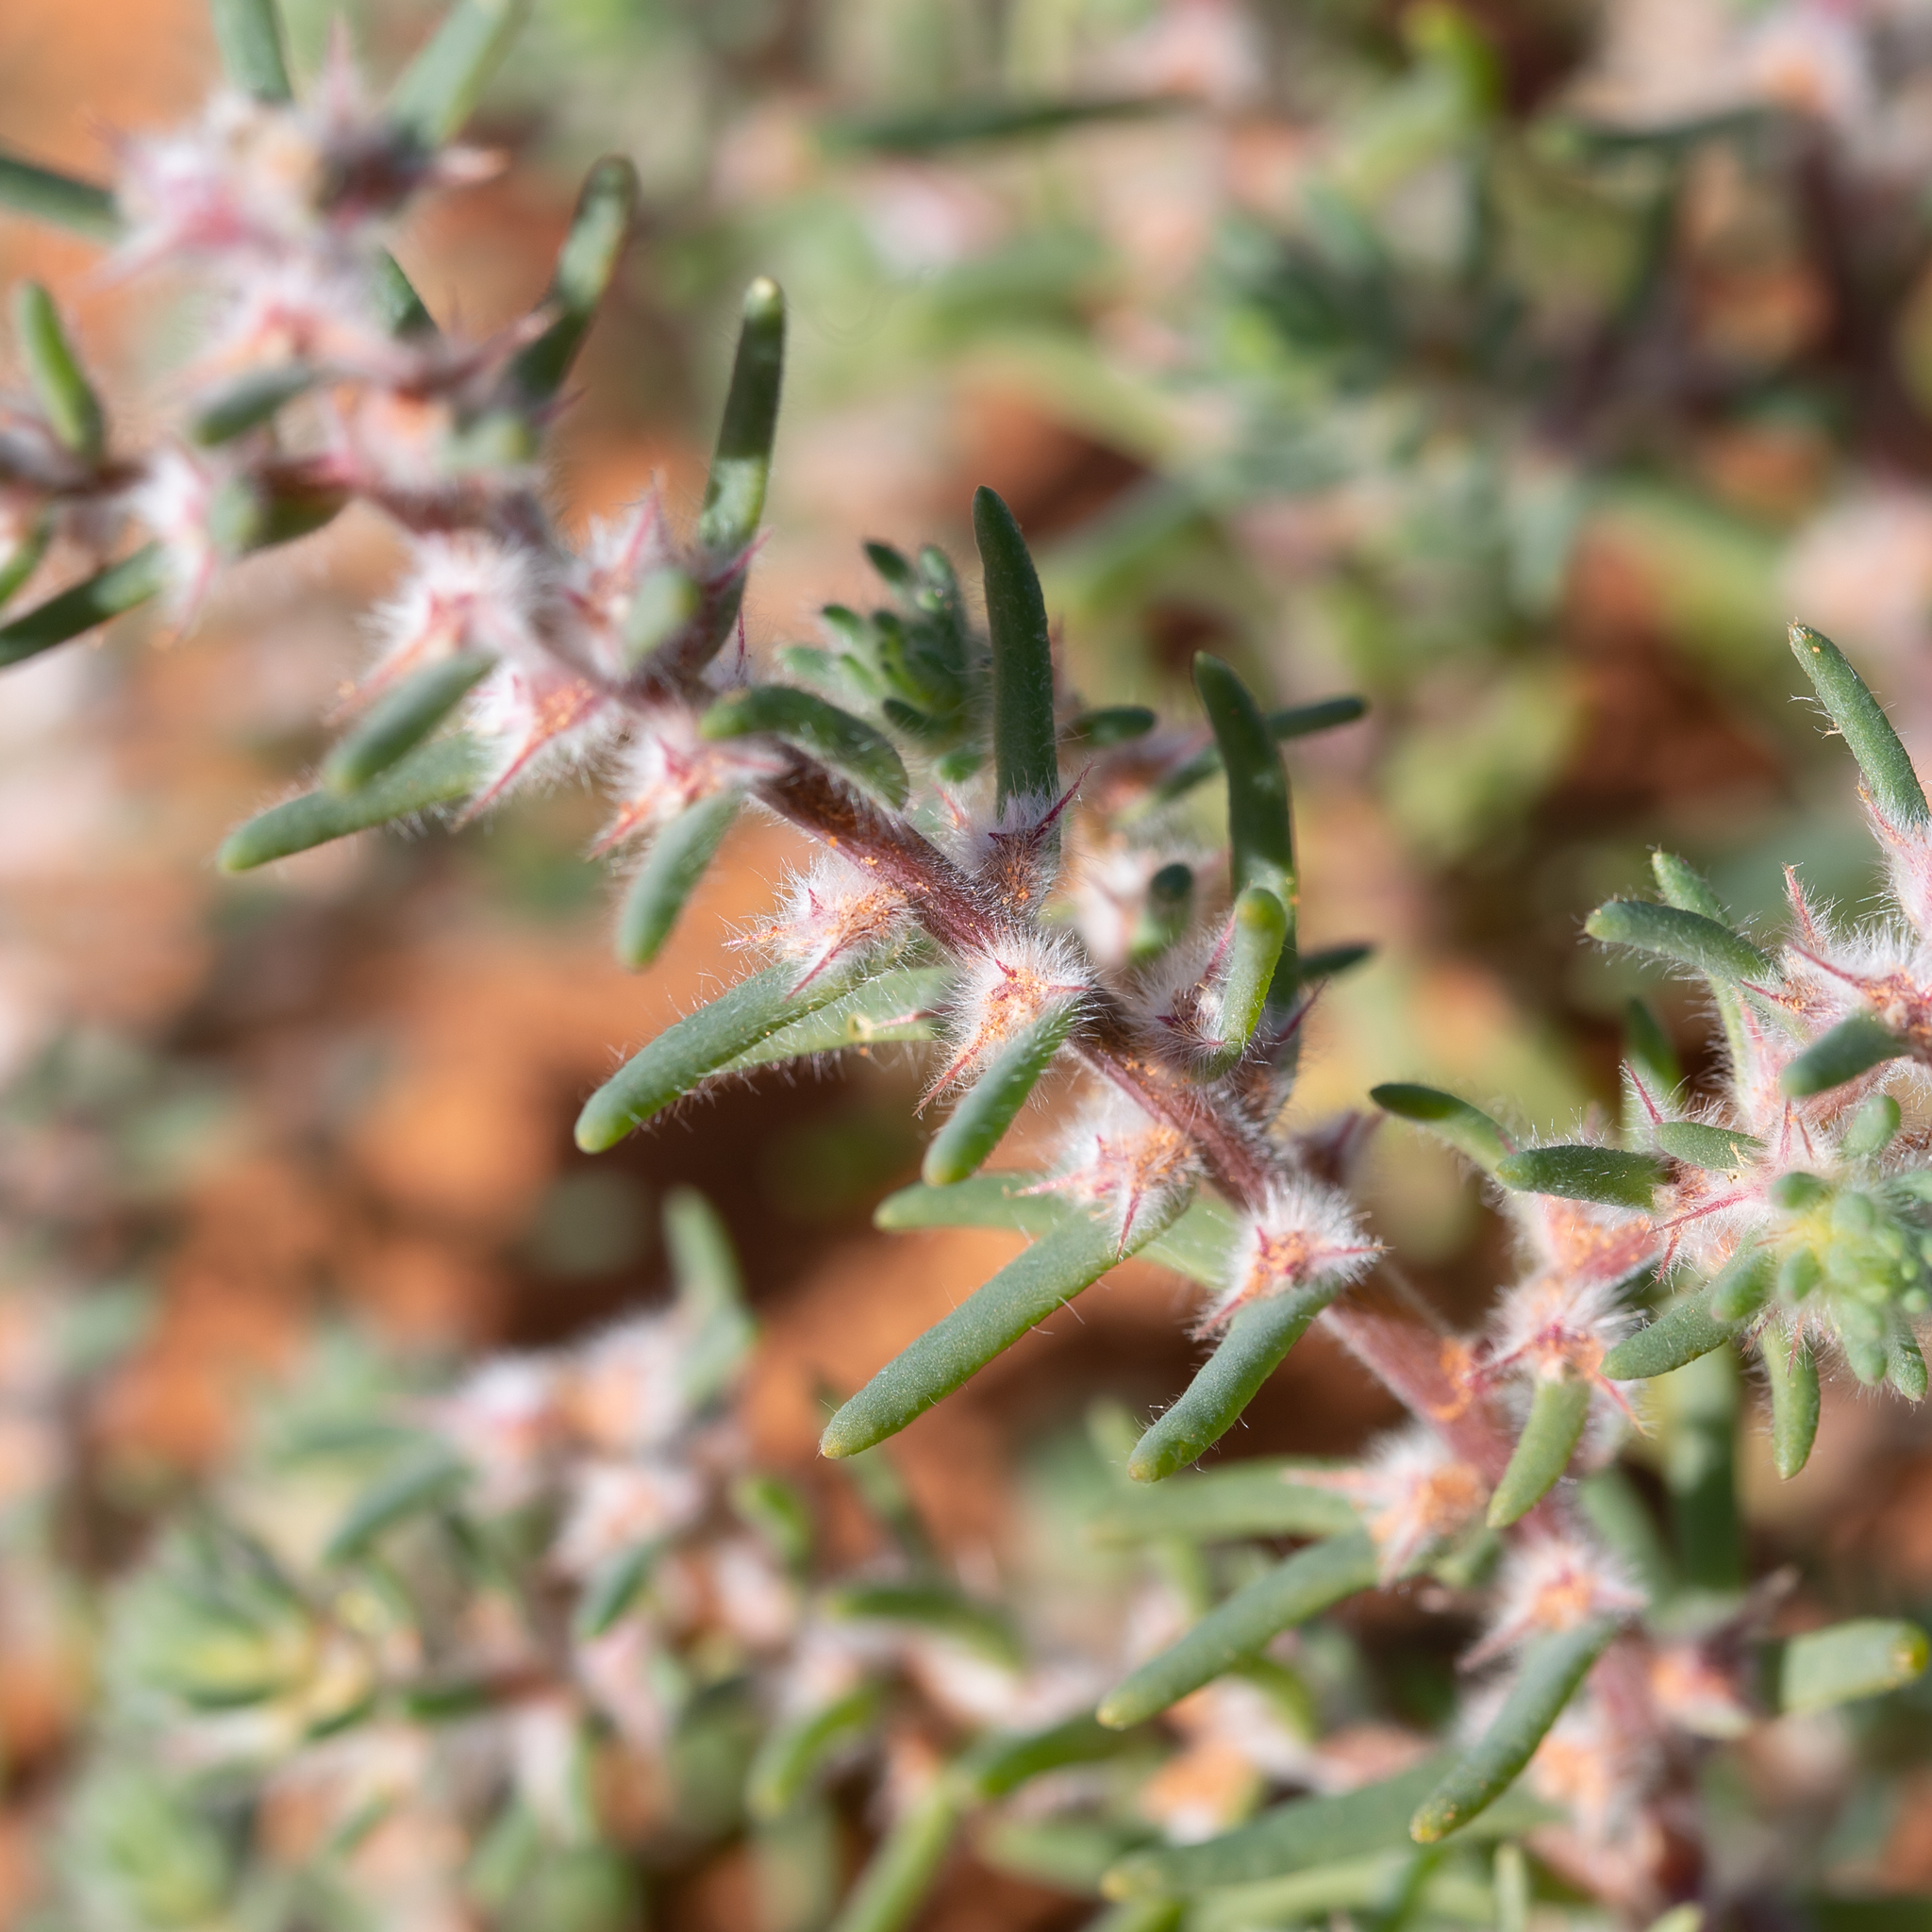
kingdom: Plantae
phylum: Tracheophyta
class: Magnoliopsida
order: Caryophyllales
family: Amaranthaceae
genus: Sclerolaena
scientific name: Sclerolaena lanicuspis
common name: Copperbur
